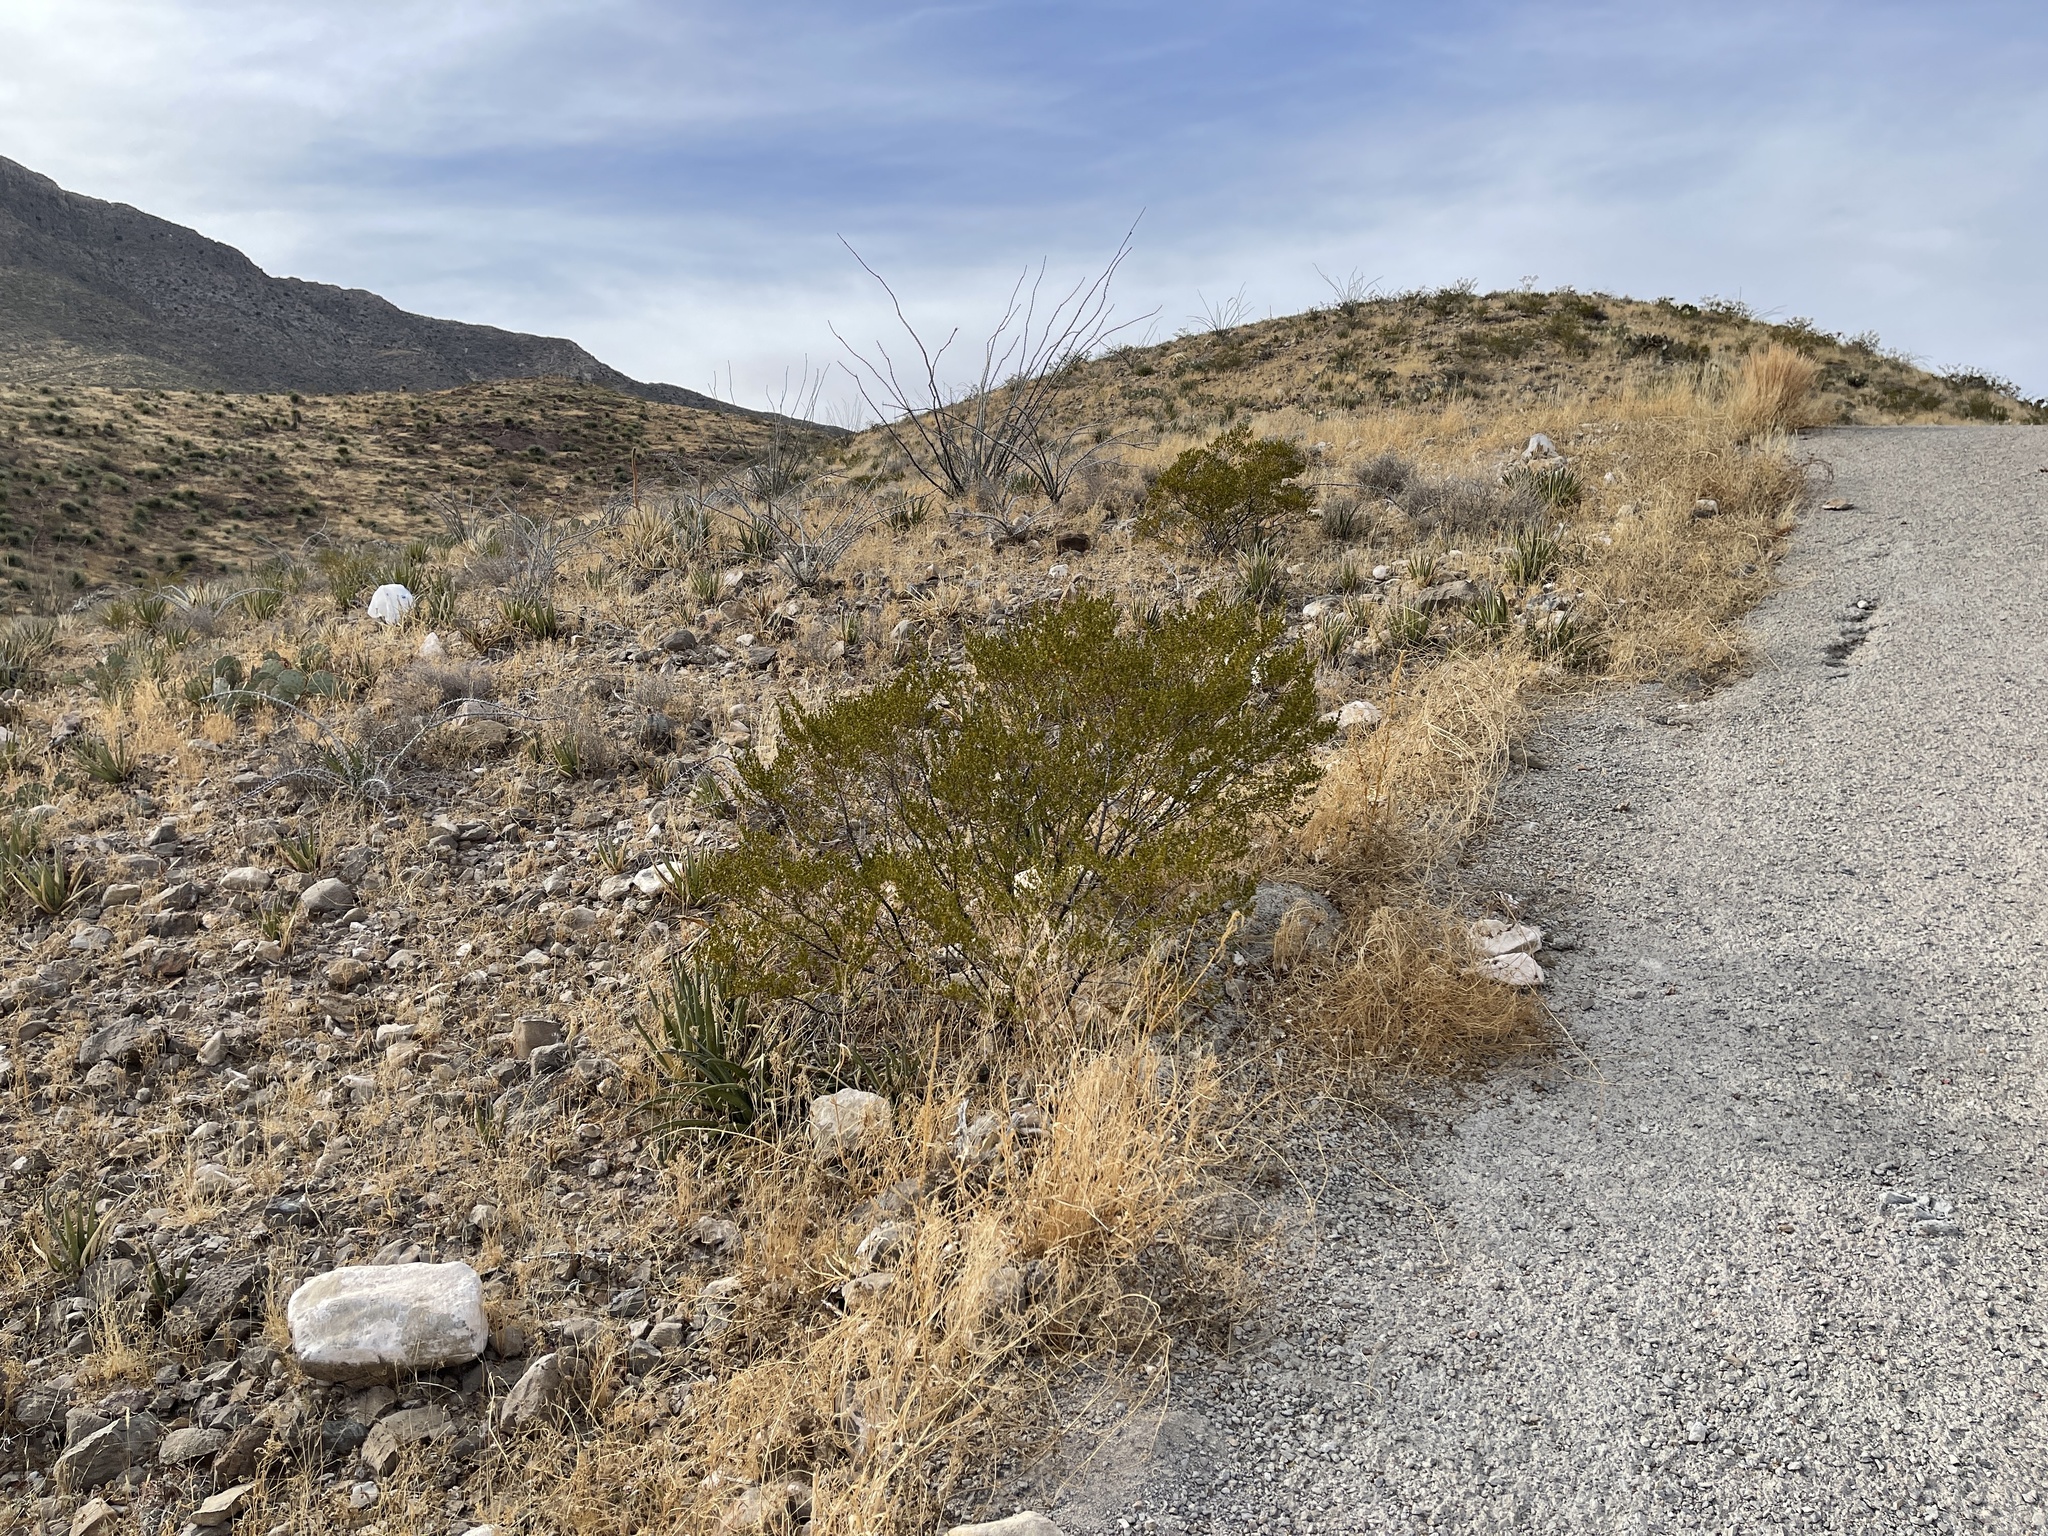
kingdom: Plantae
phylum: Tracheophyta
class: Magnoliopsida
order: Zygophyllales
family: Zygophyllaceae
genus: Larrea
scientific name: Larrea tridentata
